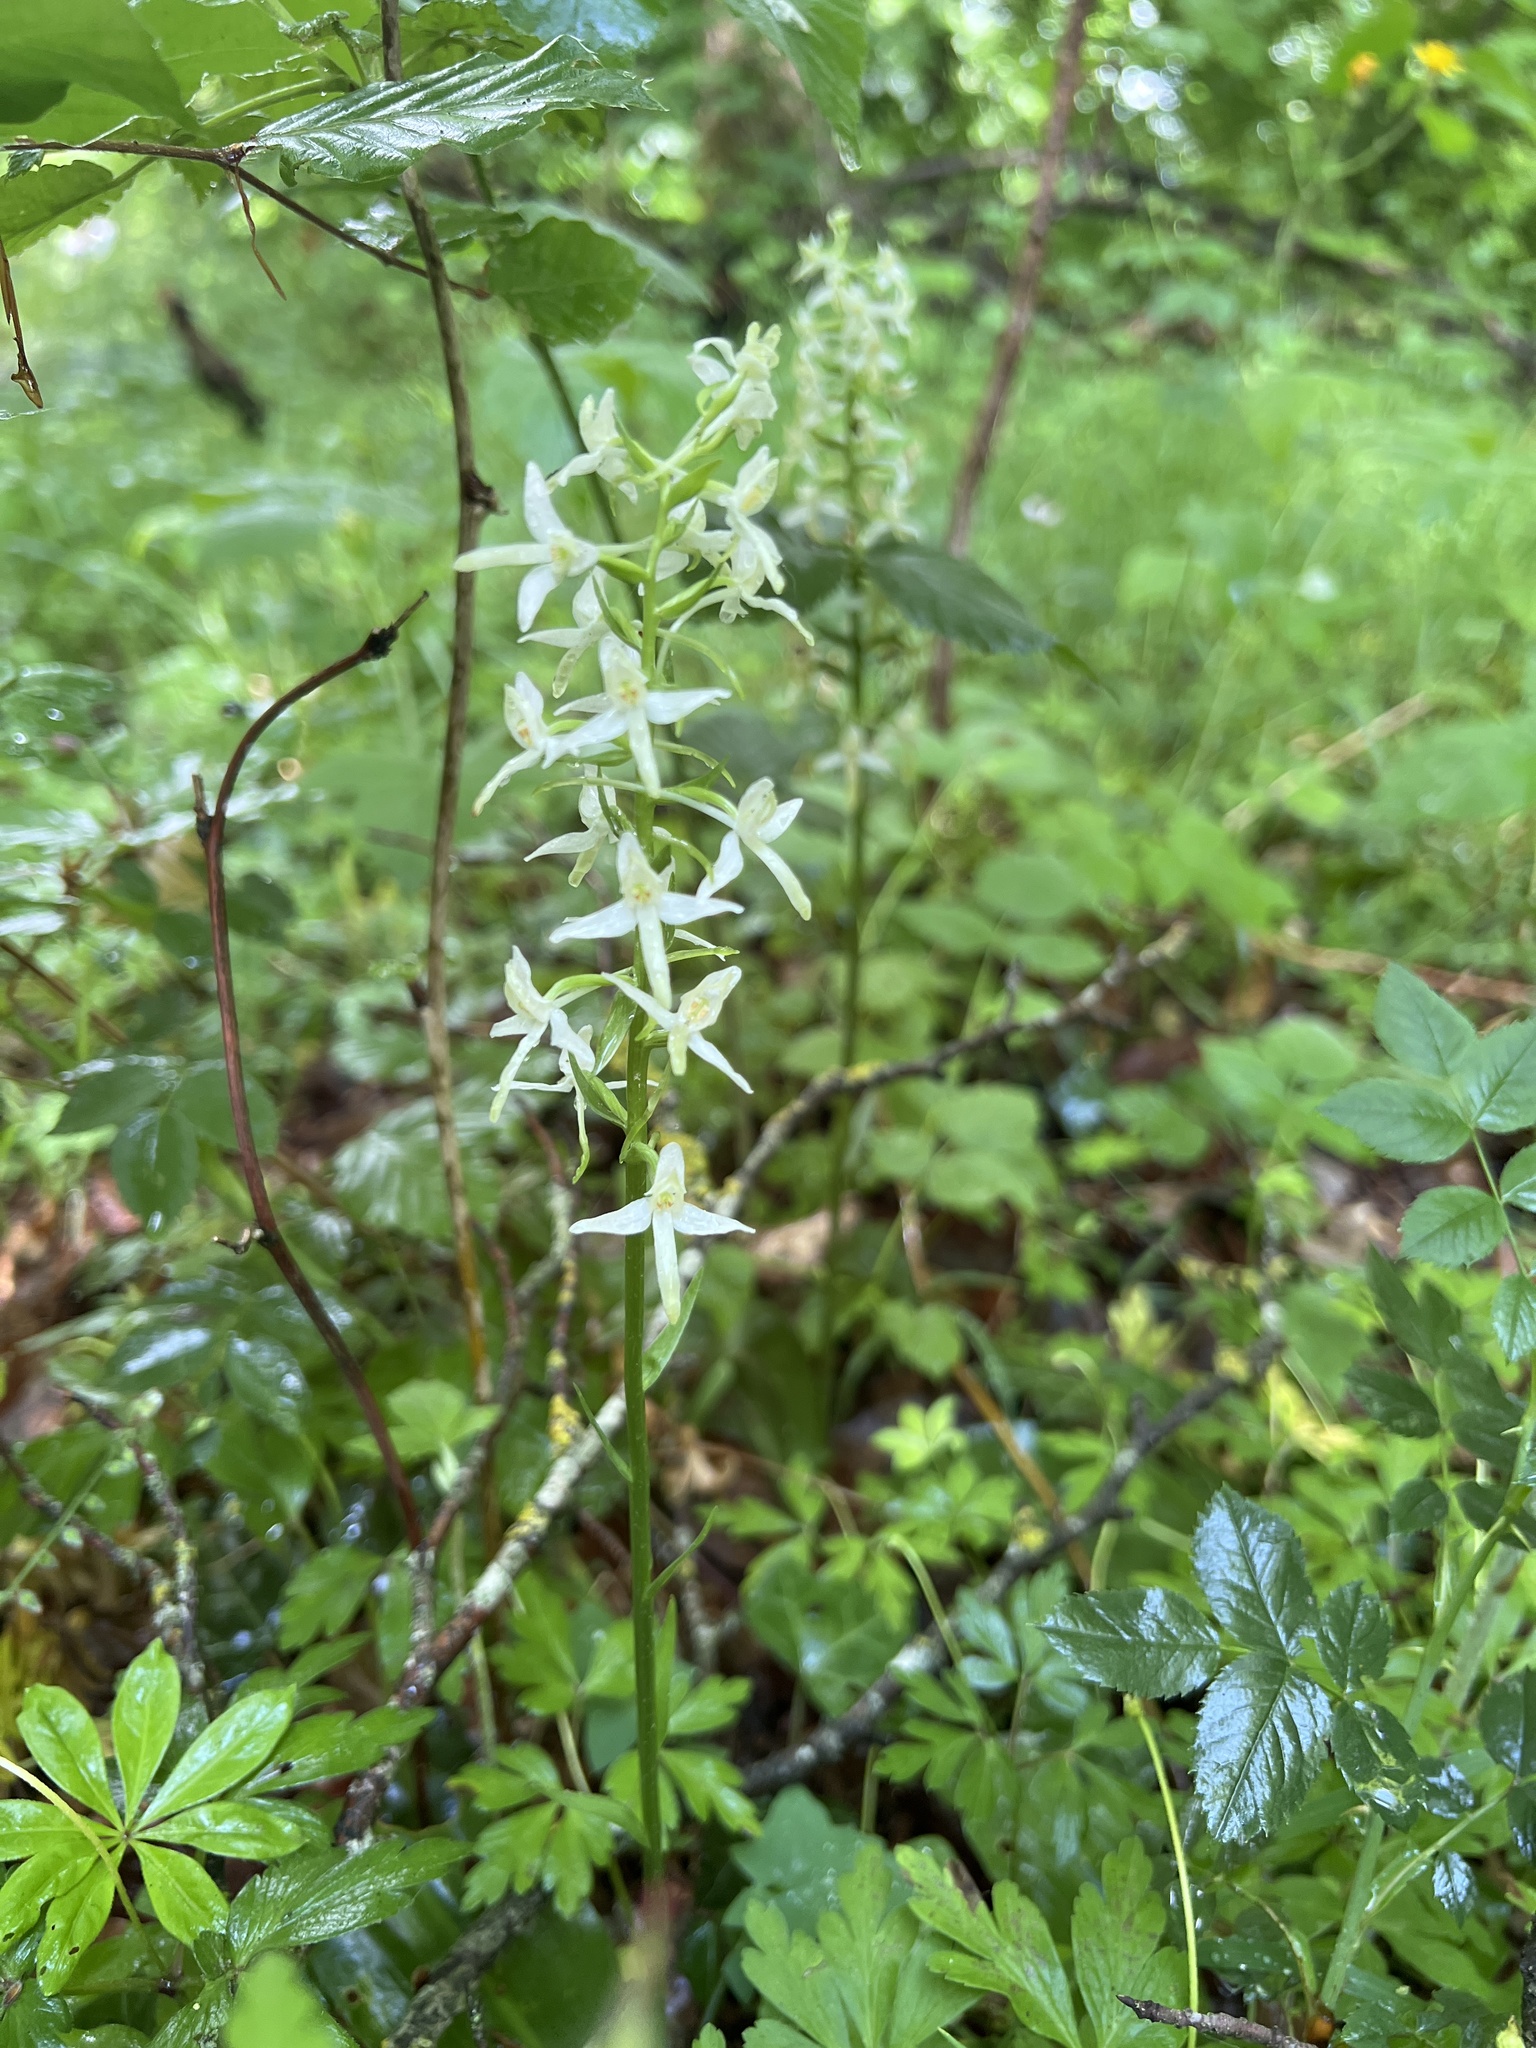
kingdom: Plantae
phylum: Tracheophyta
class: Liliopsida
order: Asparagales
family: Orchidaceae
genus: Platanthera
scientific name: Platanthera bifolia
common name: Lesser butterfly-orchid
